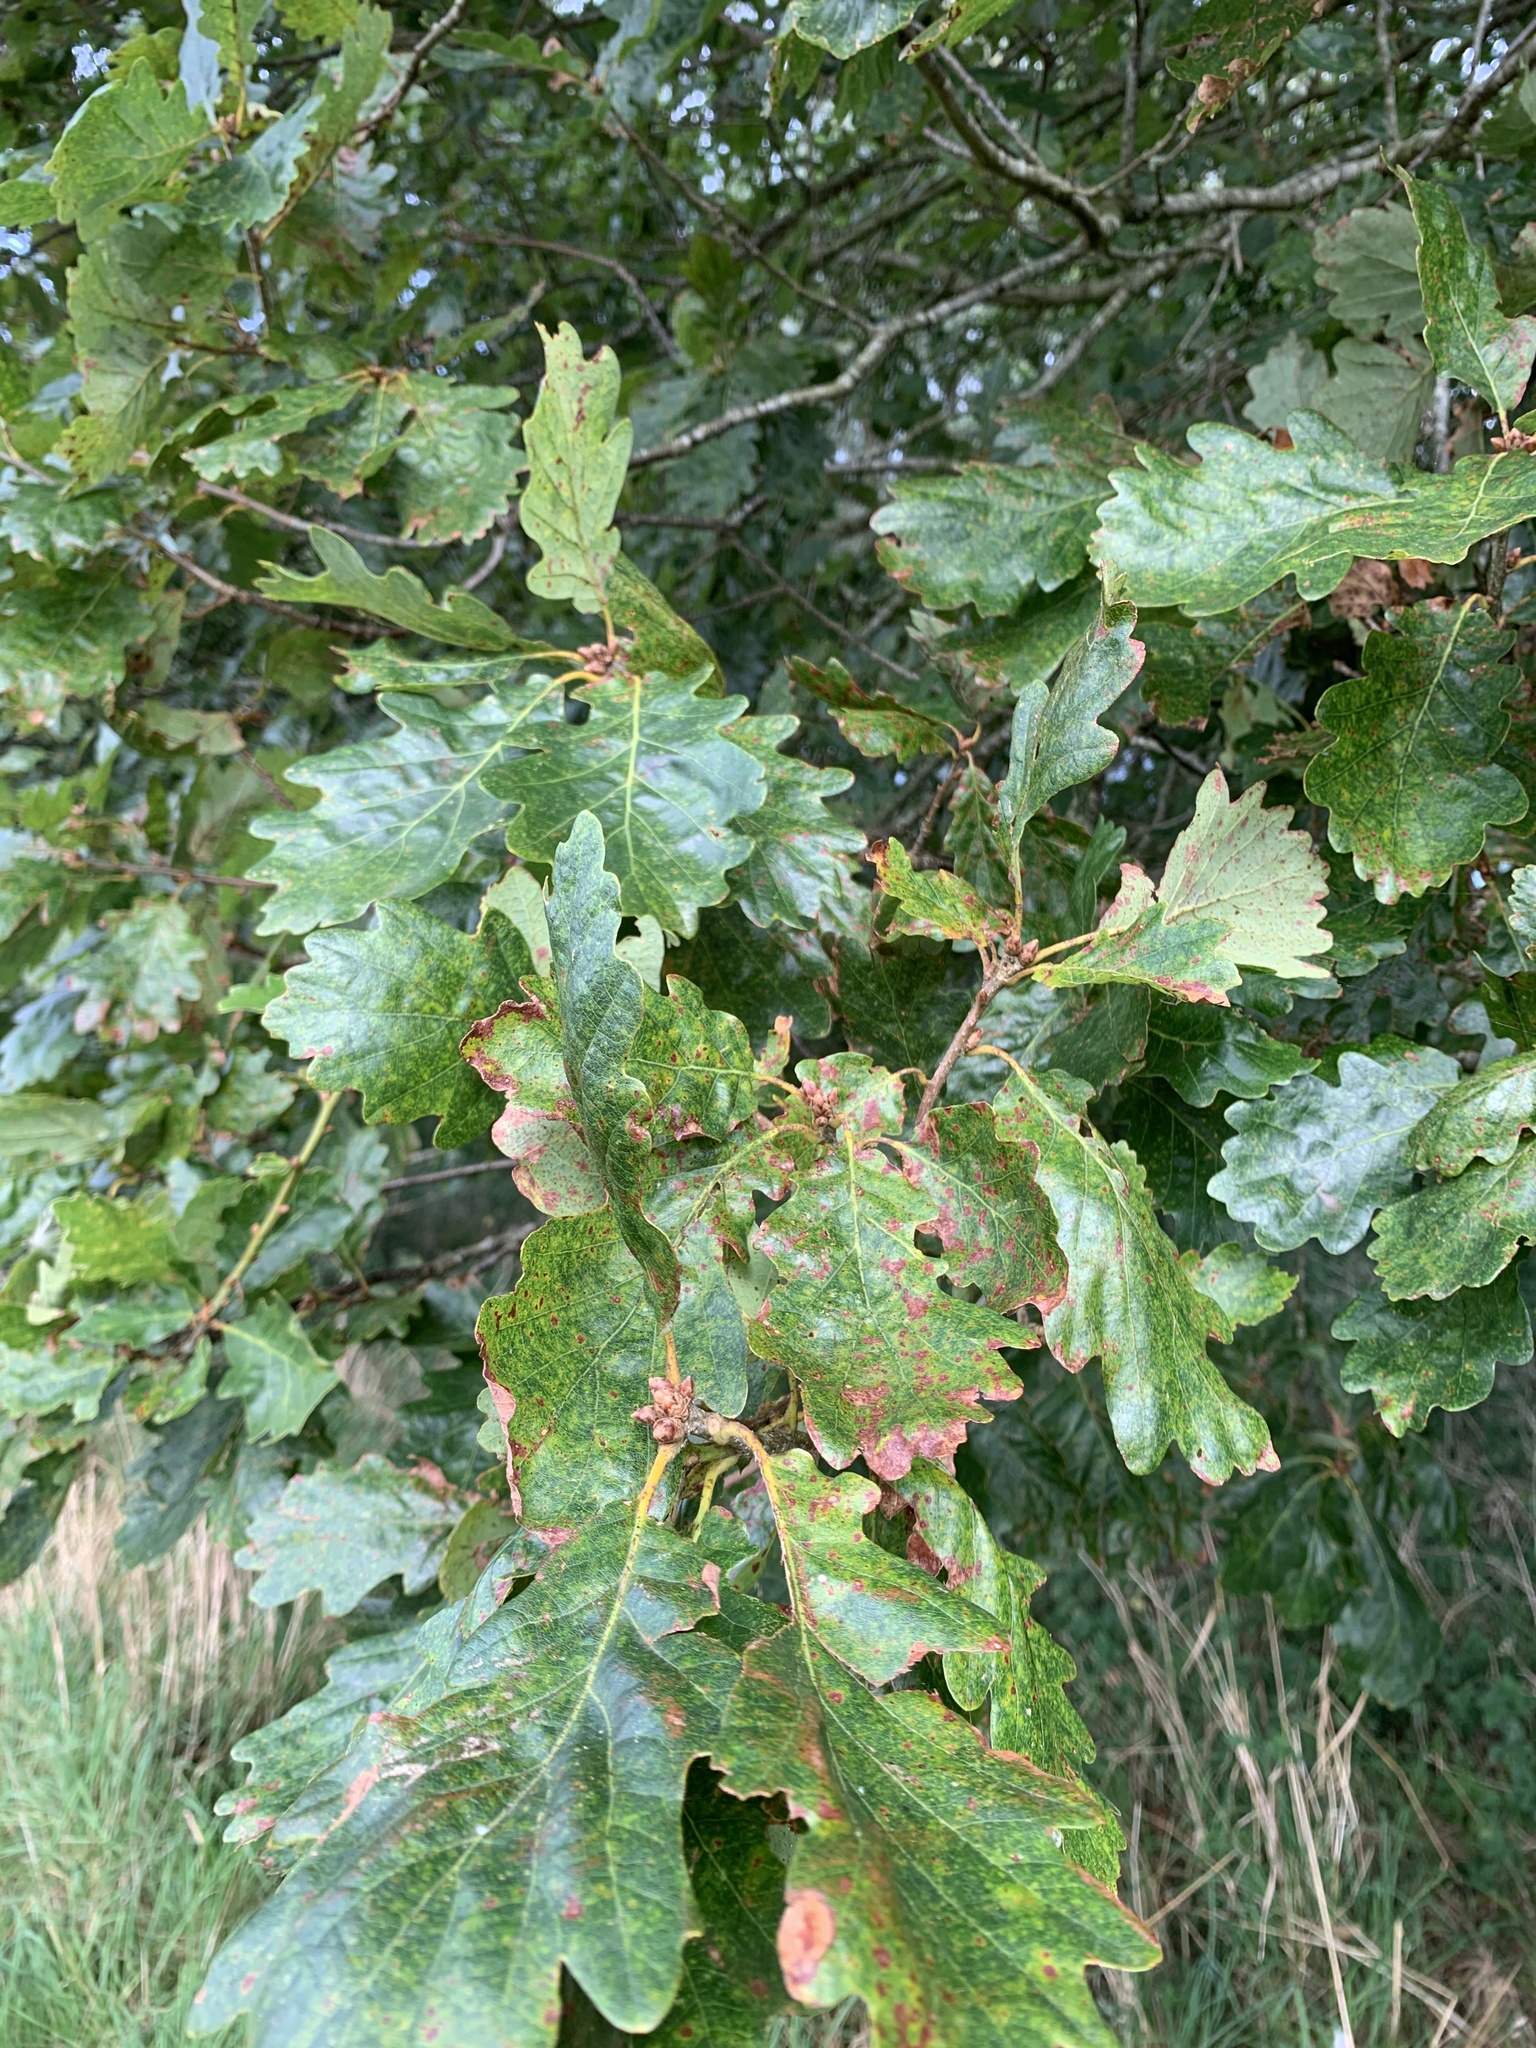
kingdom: Plantae
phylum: Tracheophyta
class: Magnoliopsida
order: Fagales
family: Fagaceae
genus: Quercus
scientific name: Quercus petraea
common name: Sessile oak
